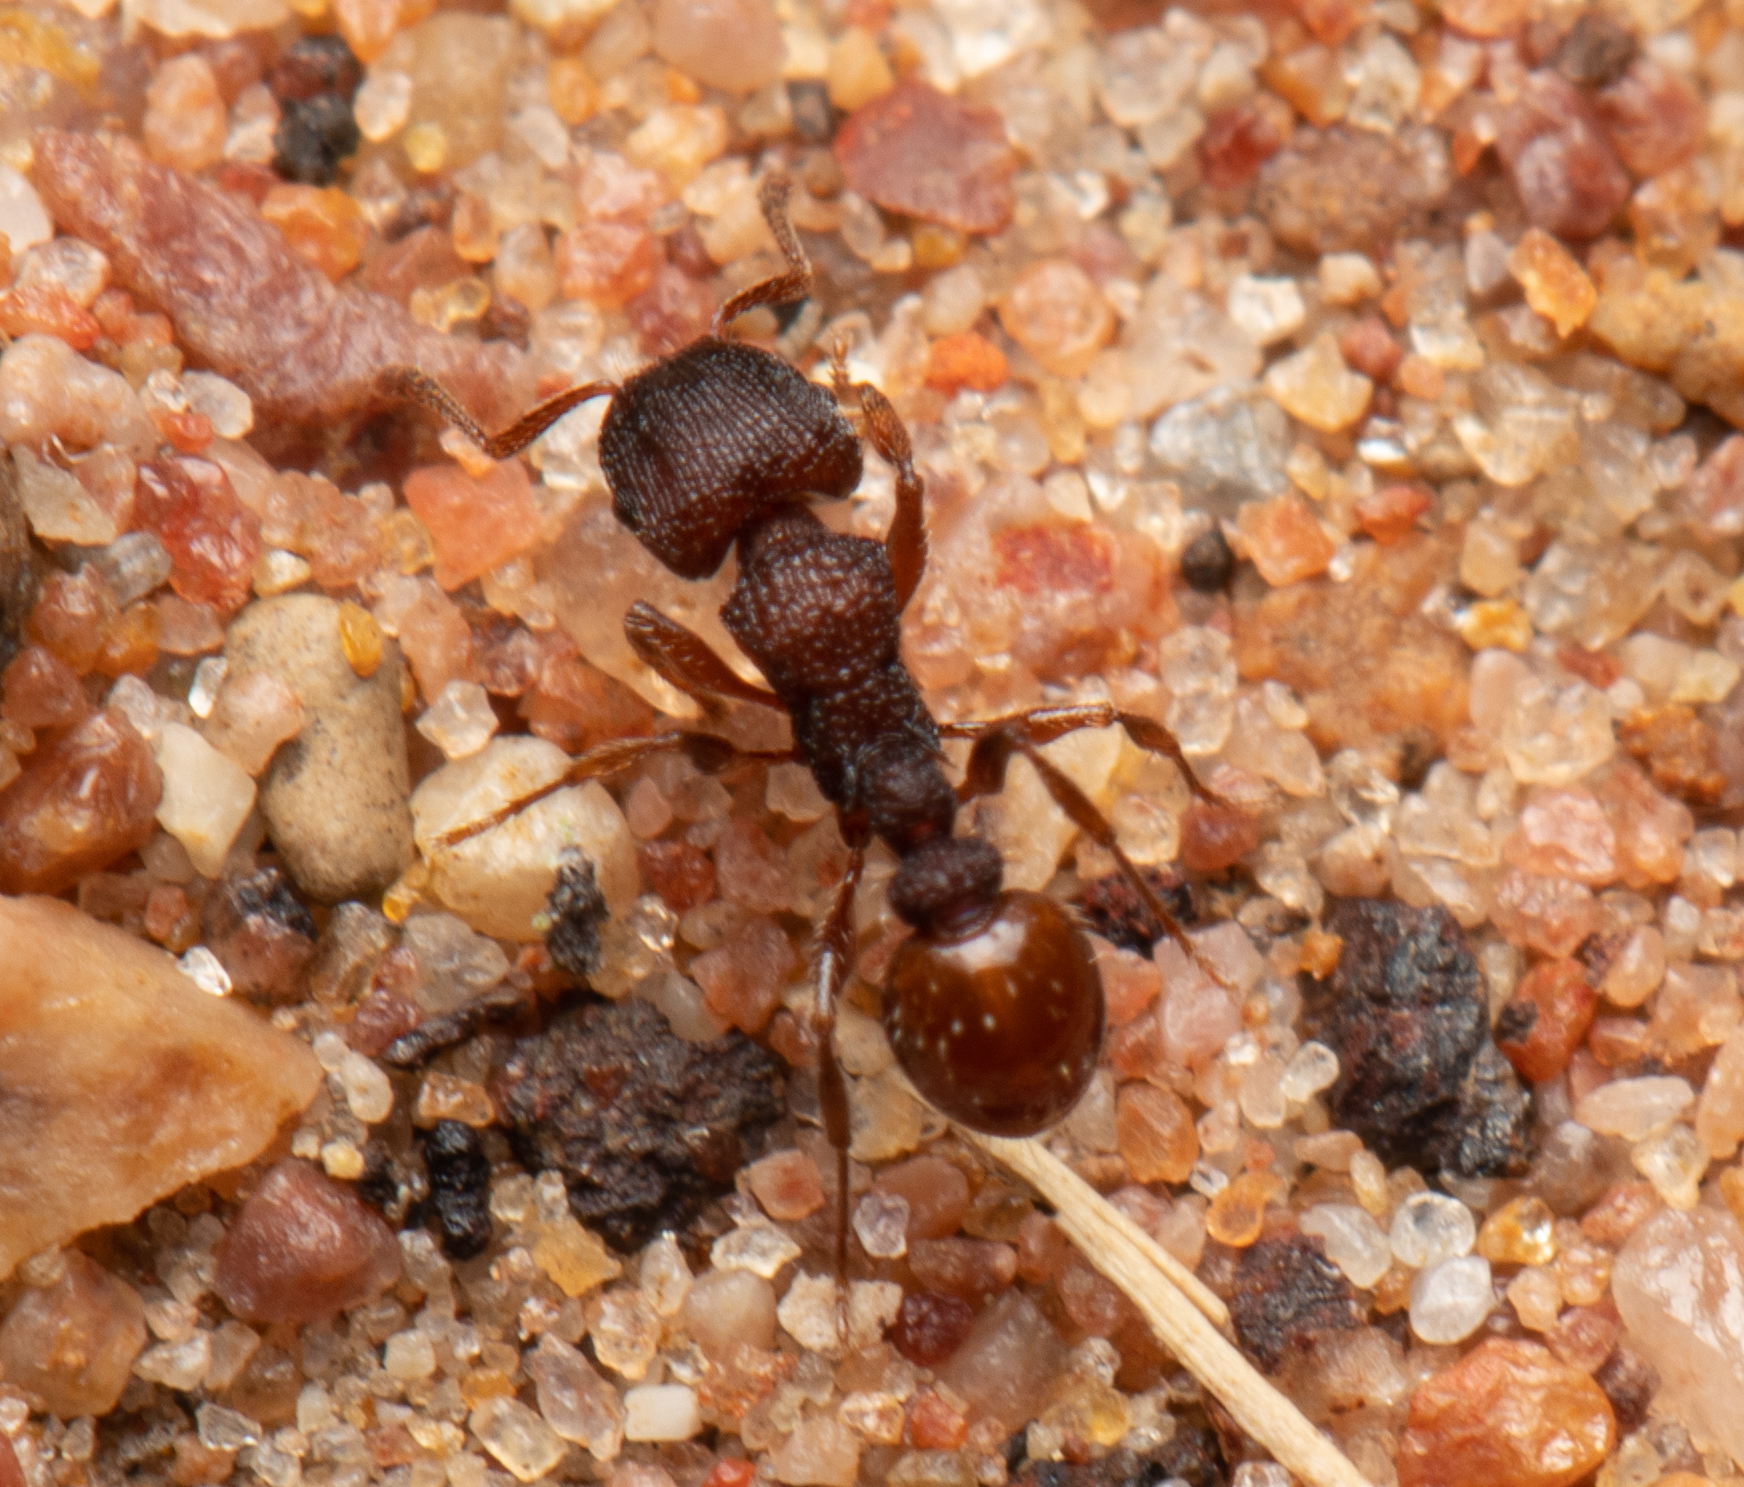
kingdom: Animalia
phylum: Arthropoda
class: Insecta
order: Hymenoptera
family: Formicidae
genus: Tetramorium
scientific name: Tetramorium impressum
